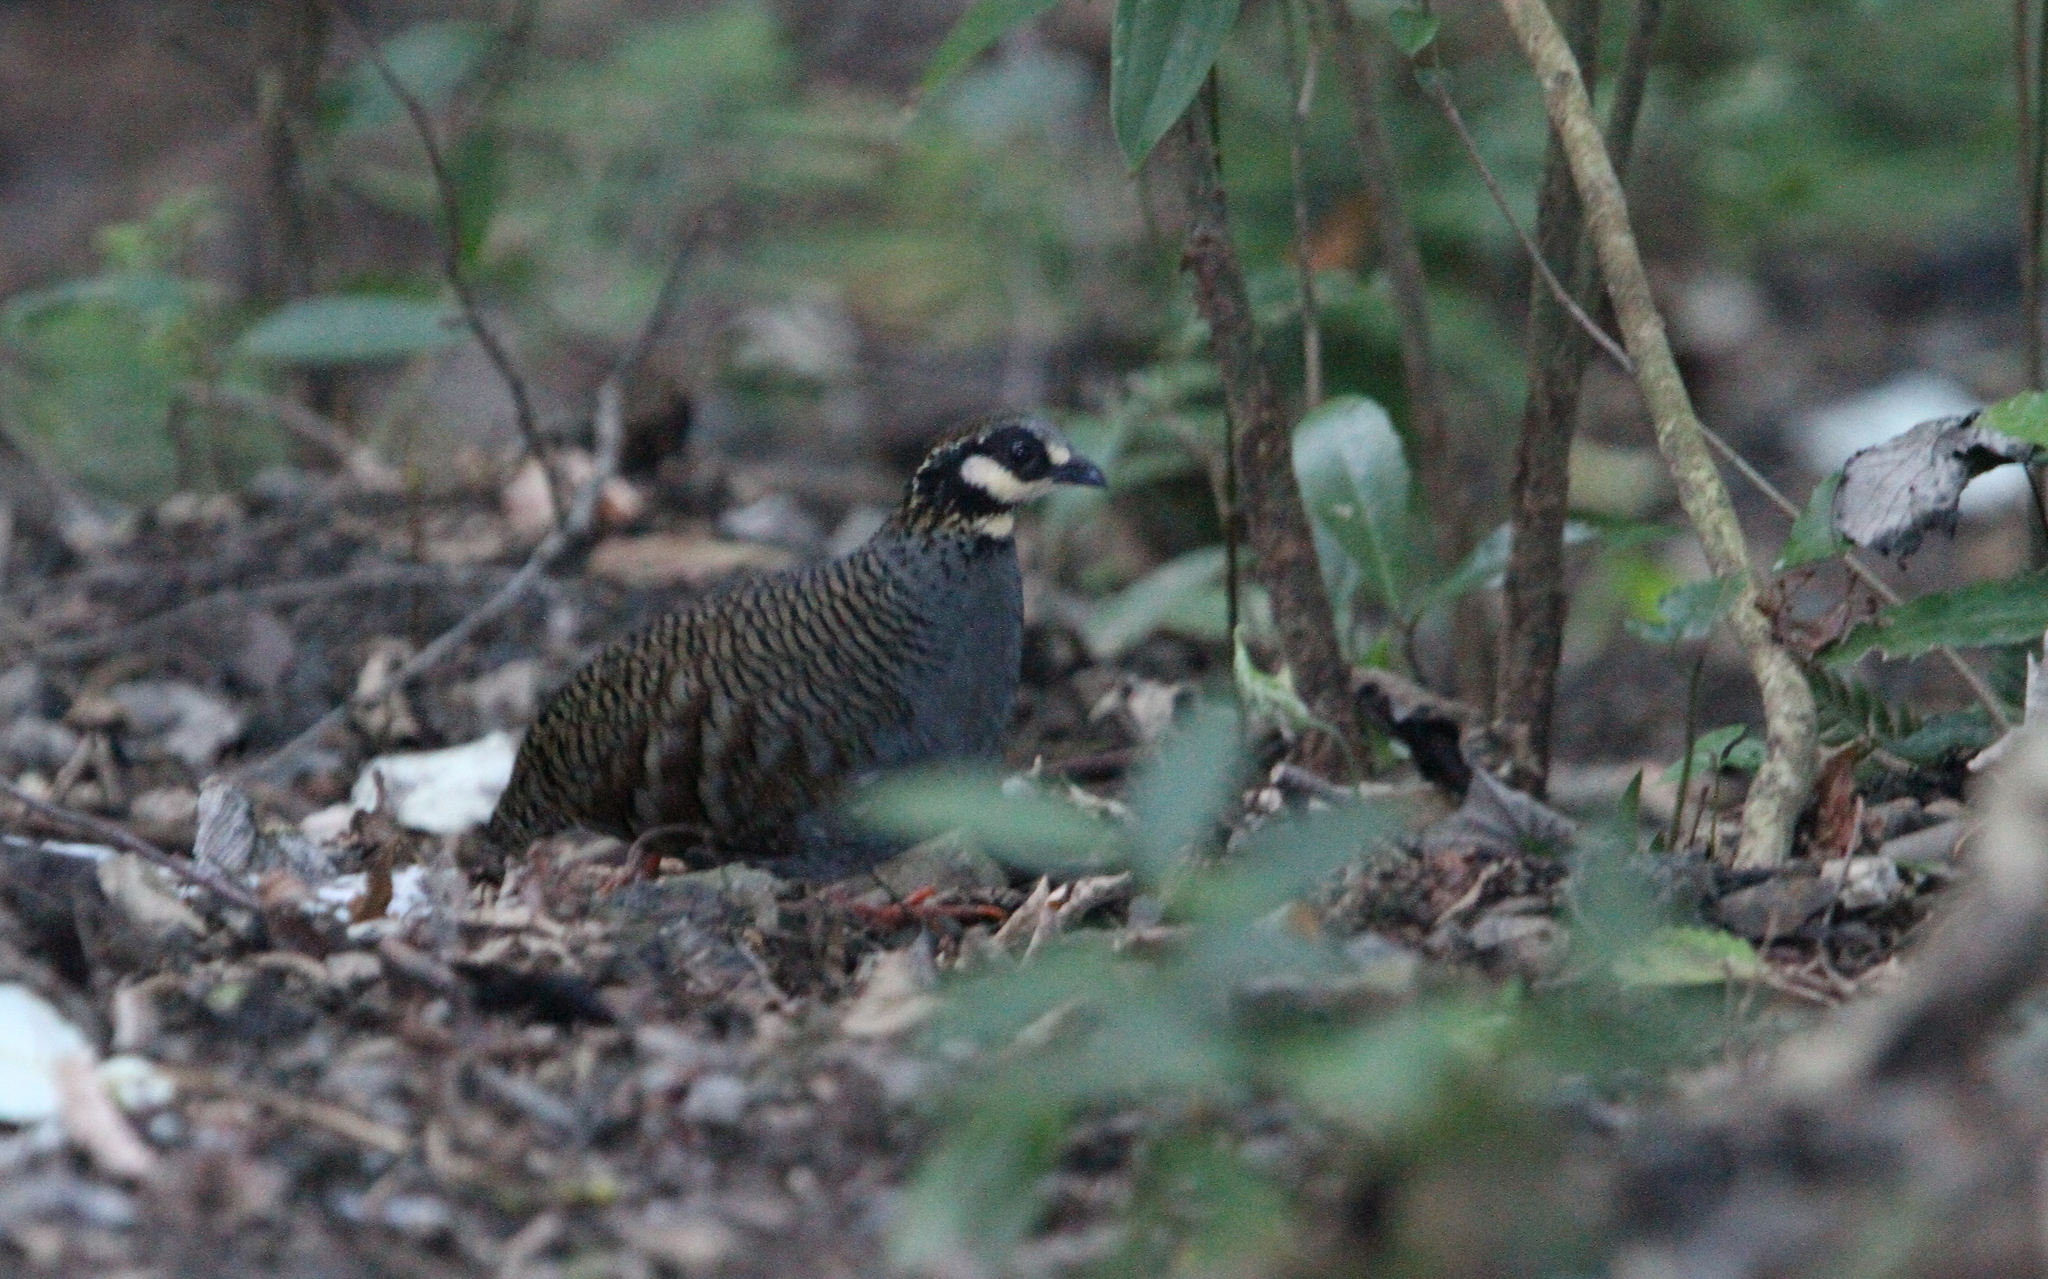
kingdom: Animalia
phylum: Chordata
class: Aves
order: Galliformes
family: Phasianidae
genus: Arborophila
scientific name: Arborophila crudigularis
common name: Taiwan partridge
